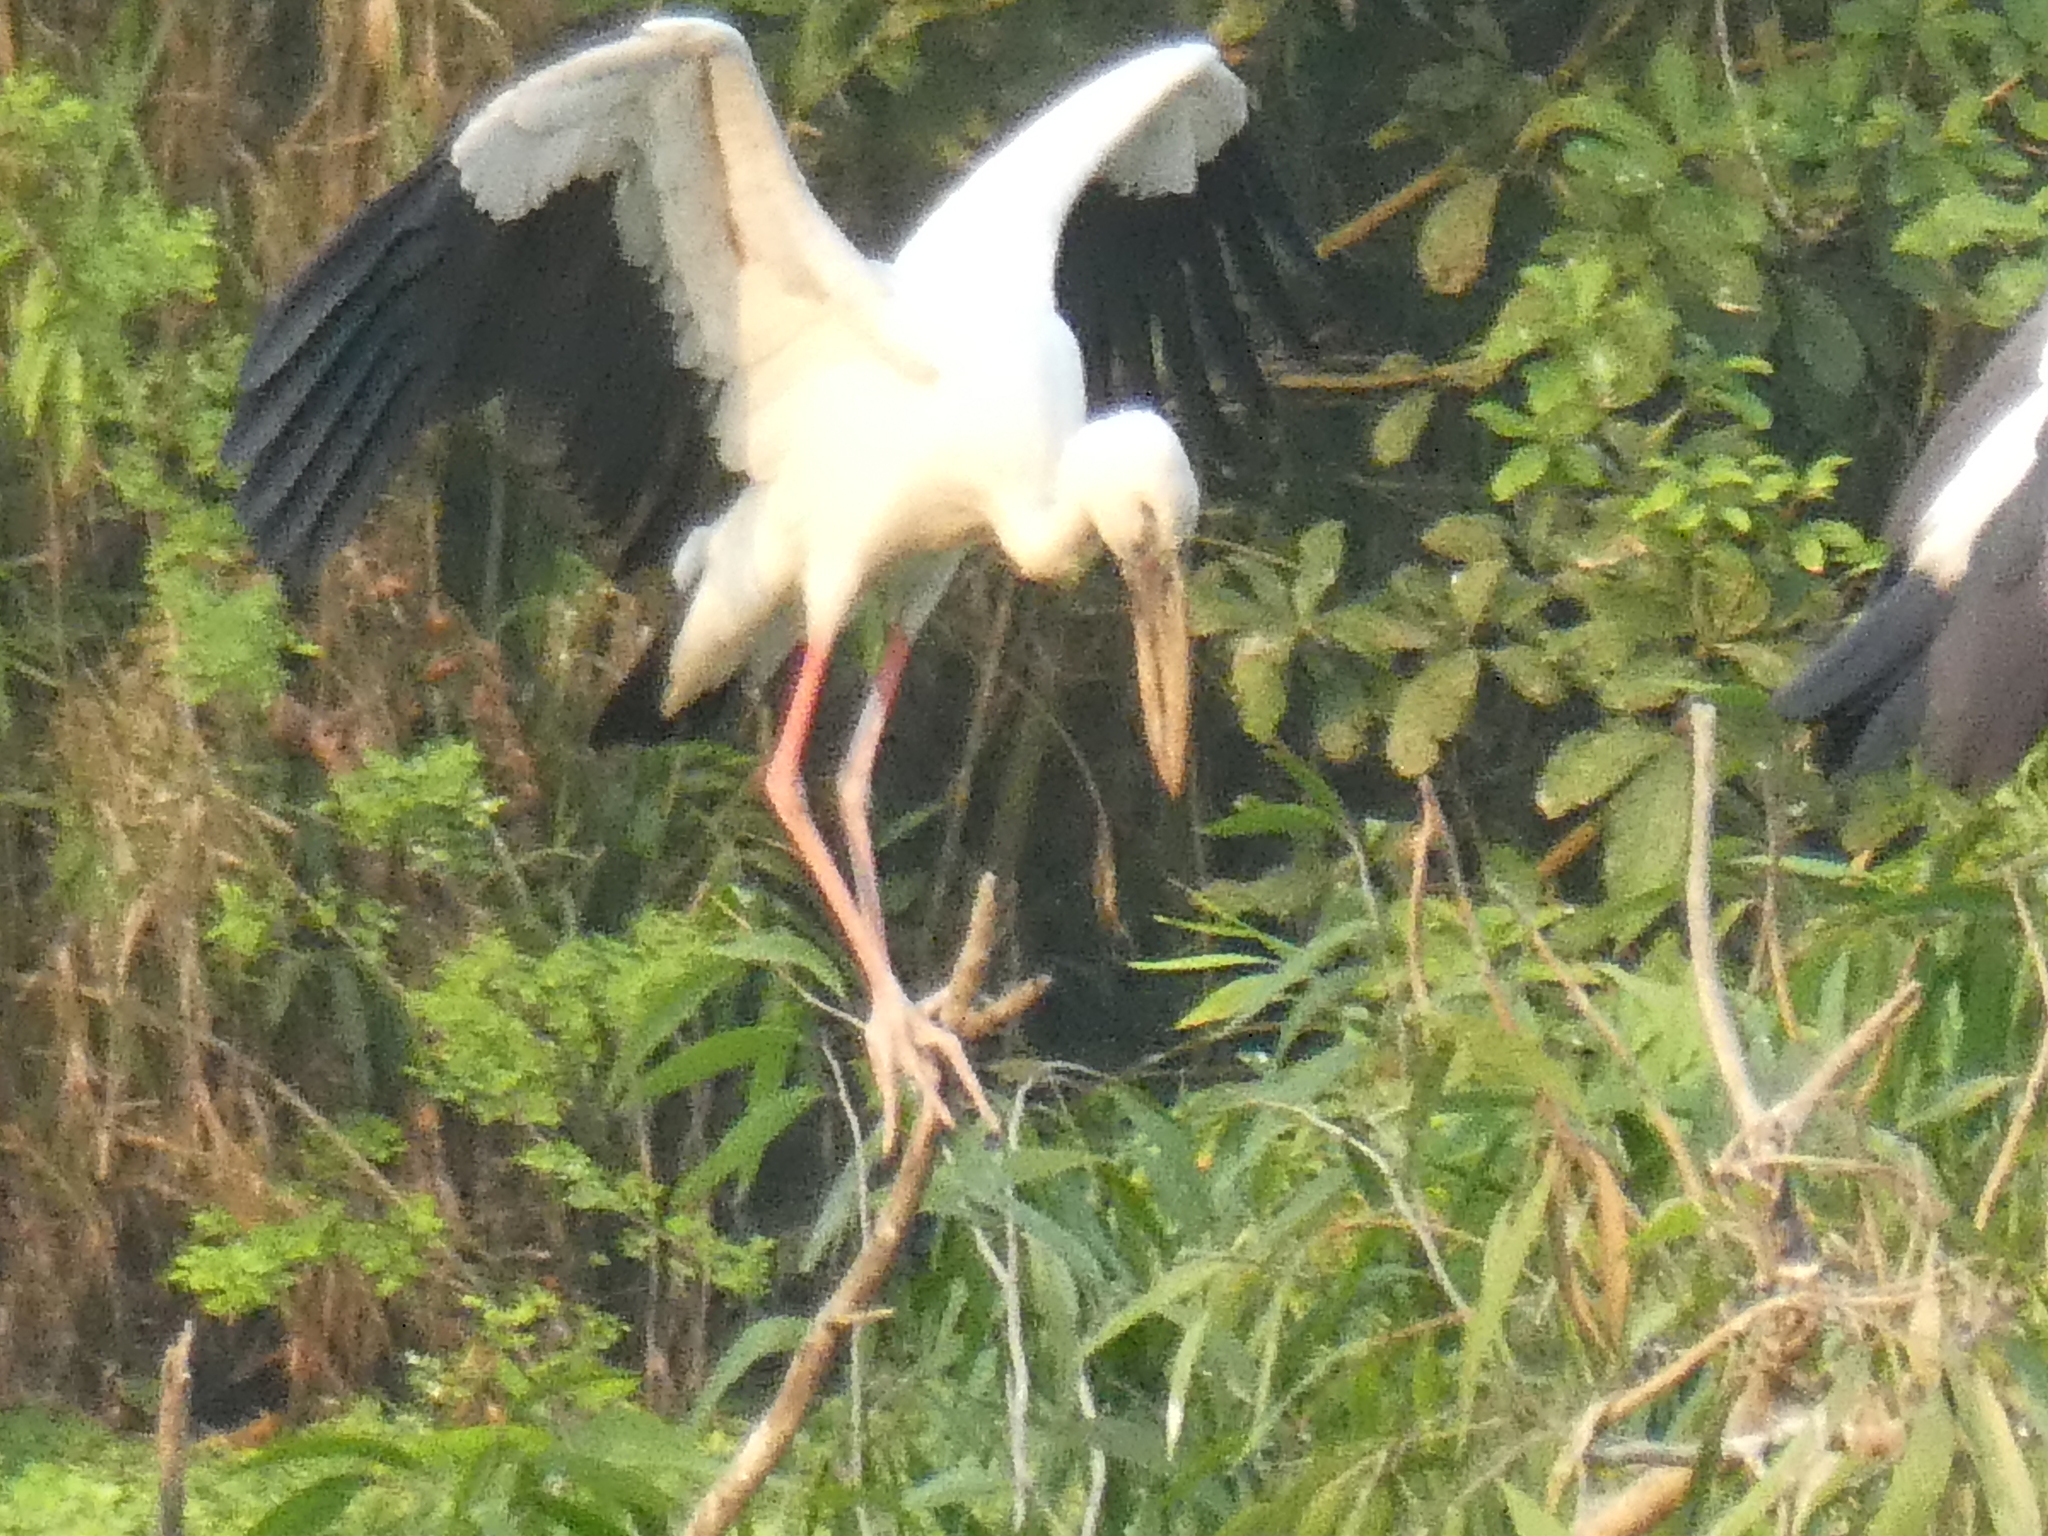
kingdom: Animalia
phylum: Chordata
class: Aves
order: Ciconiiformes
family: Ciconiidae
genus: Anastomus
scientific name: Anastomus oscitans
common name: Asian openbill
